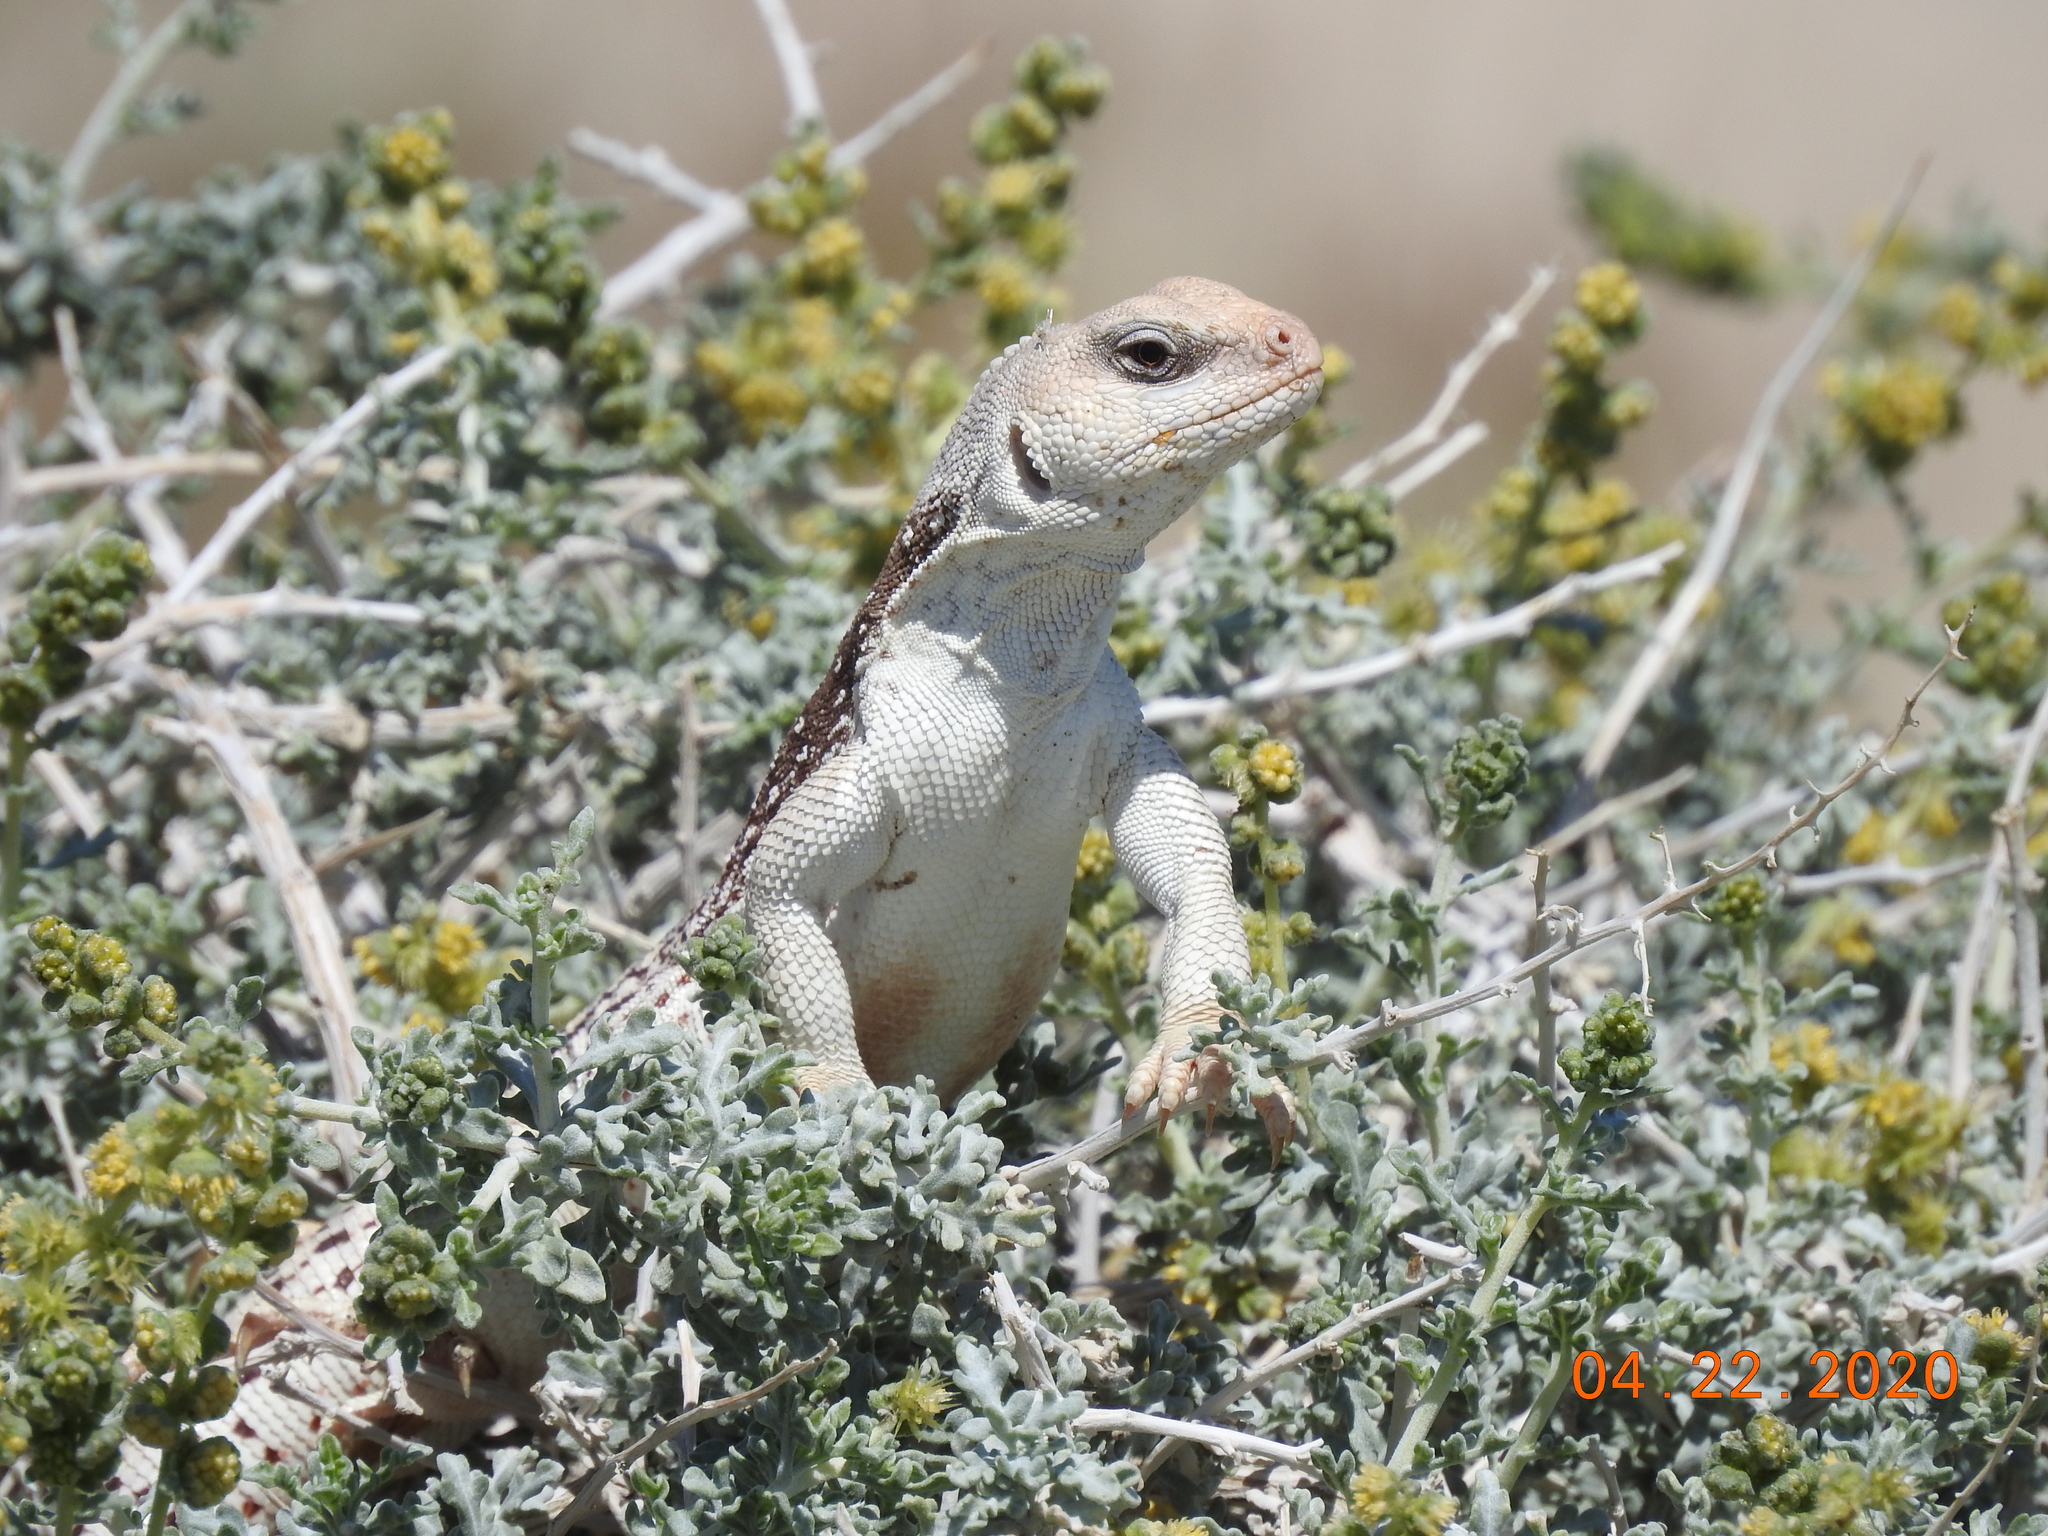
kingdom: Animalia
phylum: Chordata
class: Squamata
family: Iguanidae
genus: Dipsosaurus
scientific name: Dipsosaurus dorsalis
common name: Desert iguana
